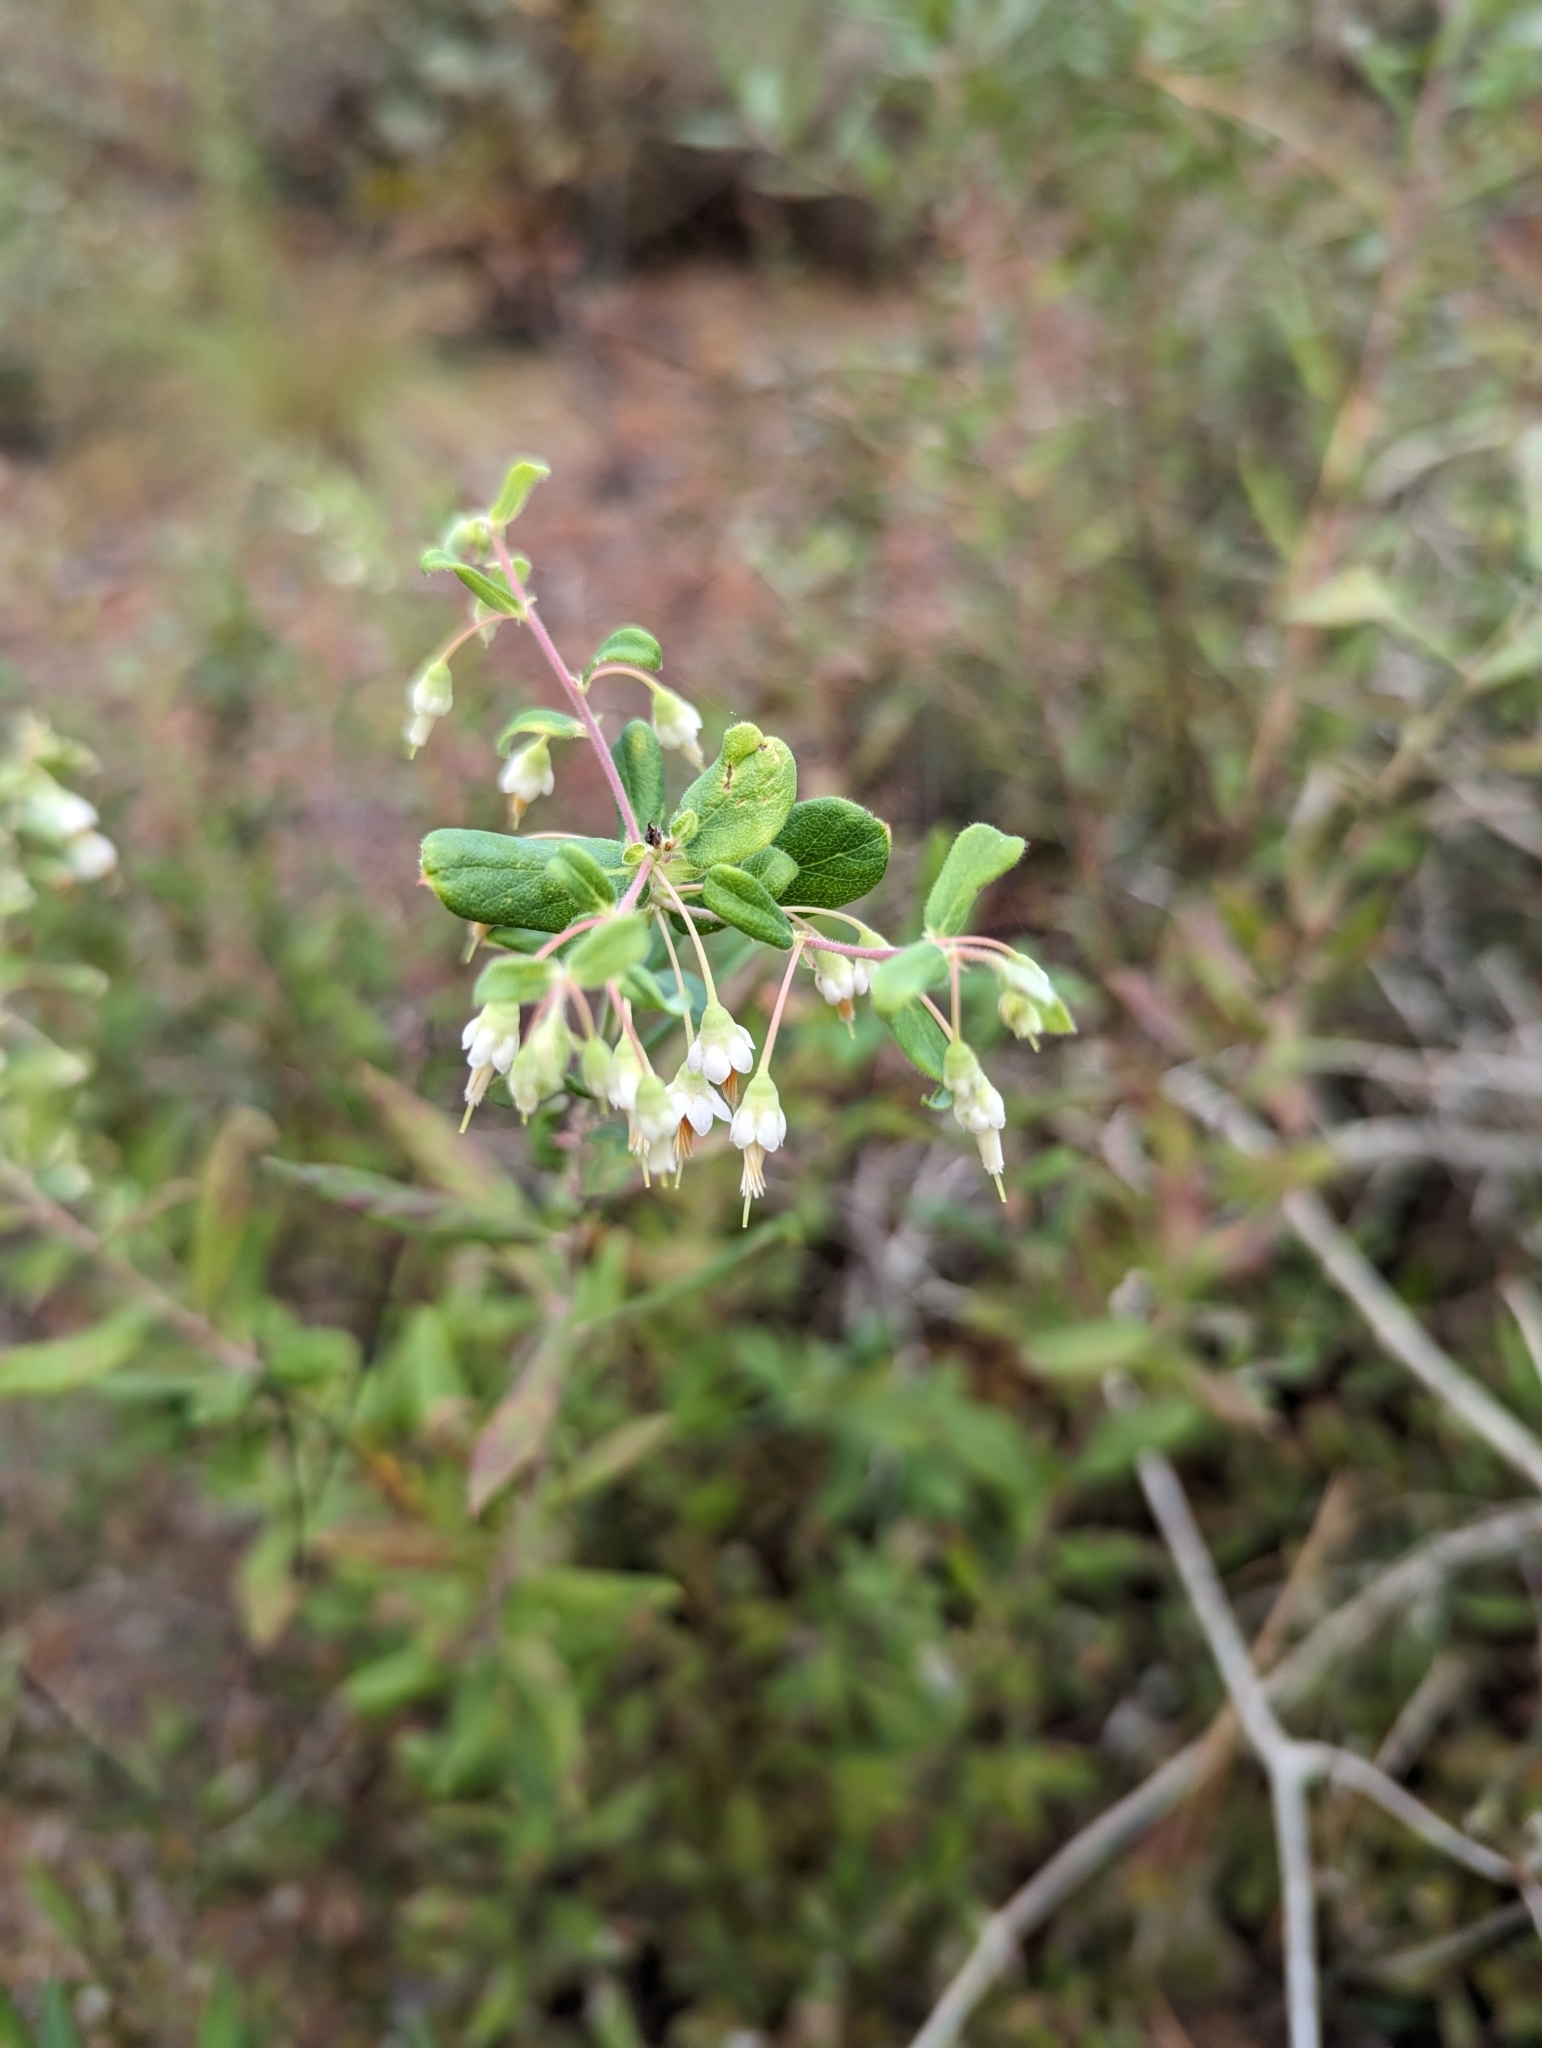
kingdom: Plantae
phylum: Tracheophyta
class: Magnoliopsida
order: Ericales
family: Ericaceae
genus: Vaccinium
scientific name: Vaccinium stamineum
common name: Deerberry
